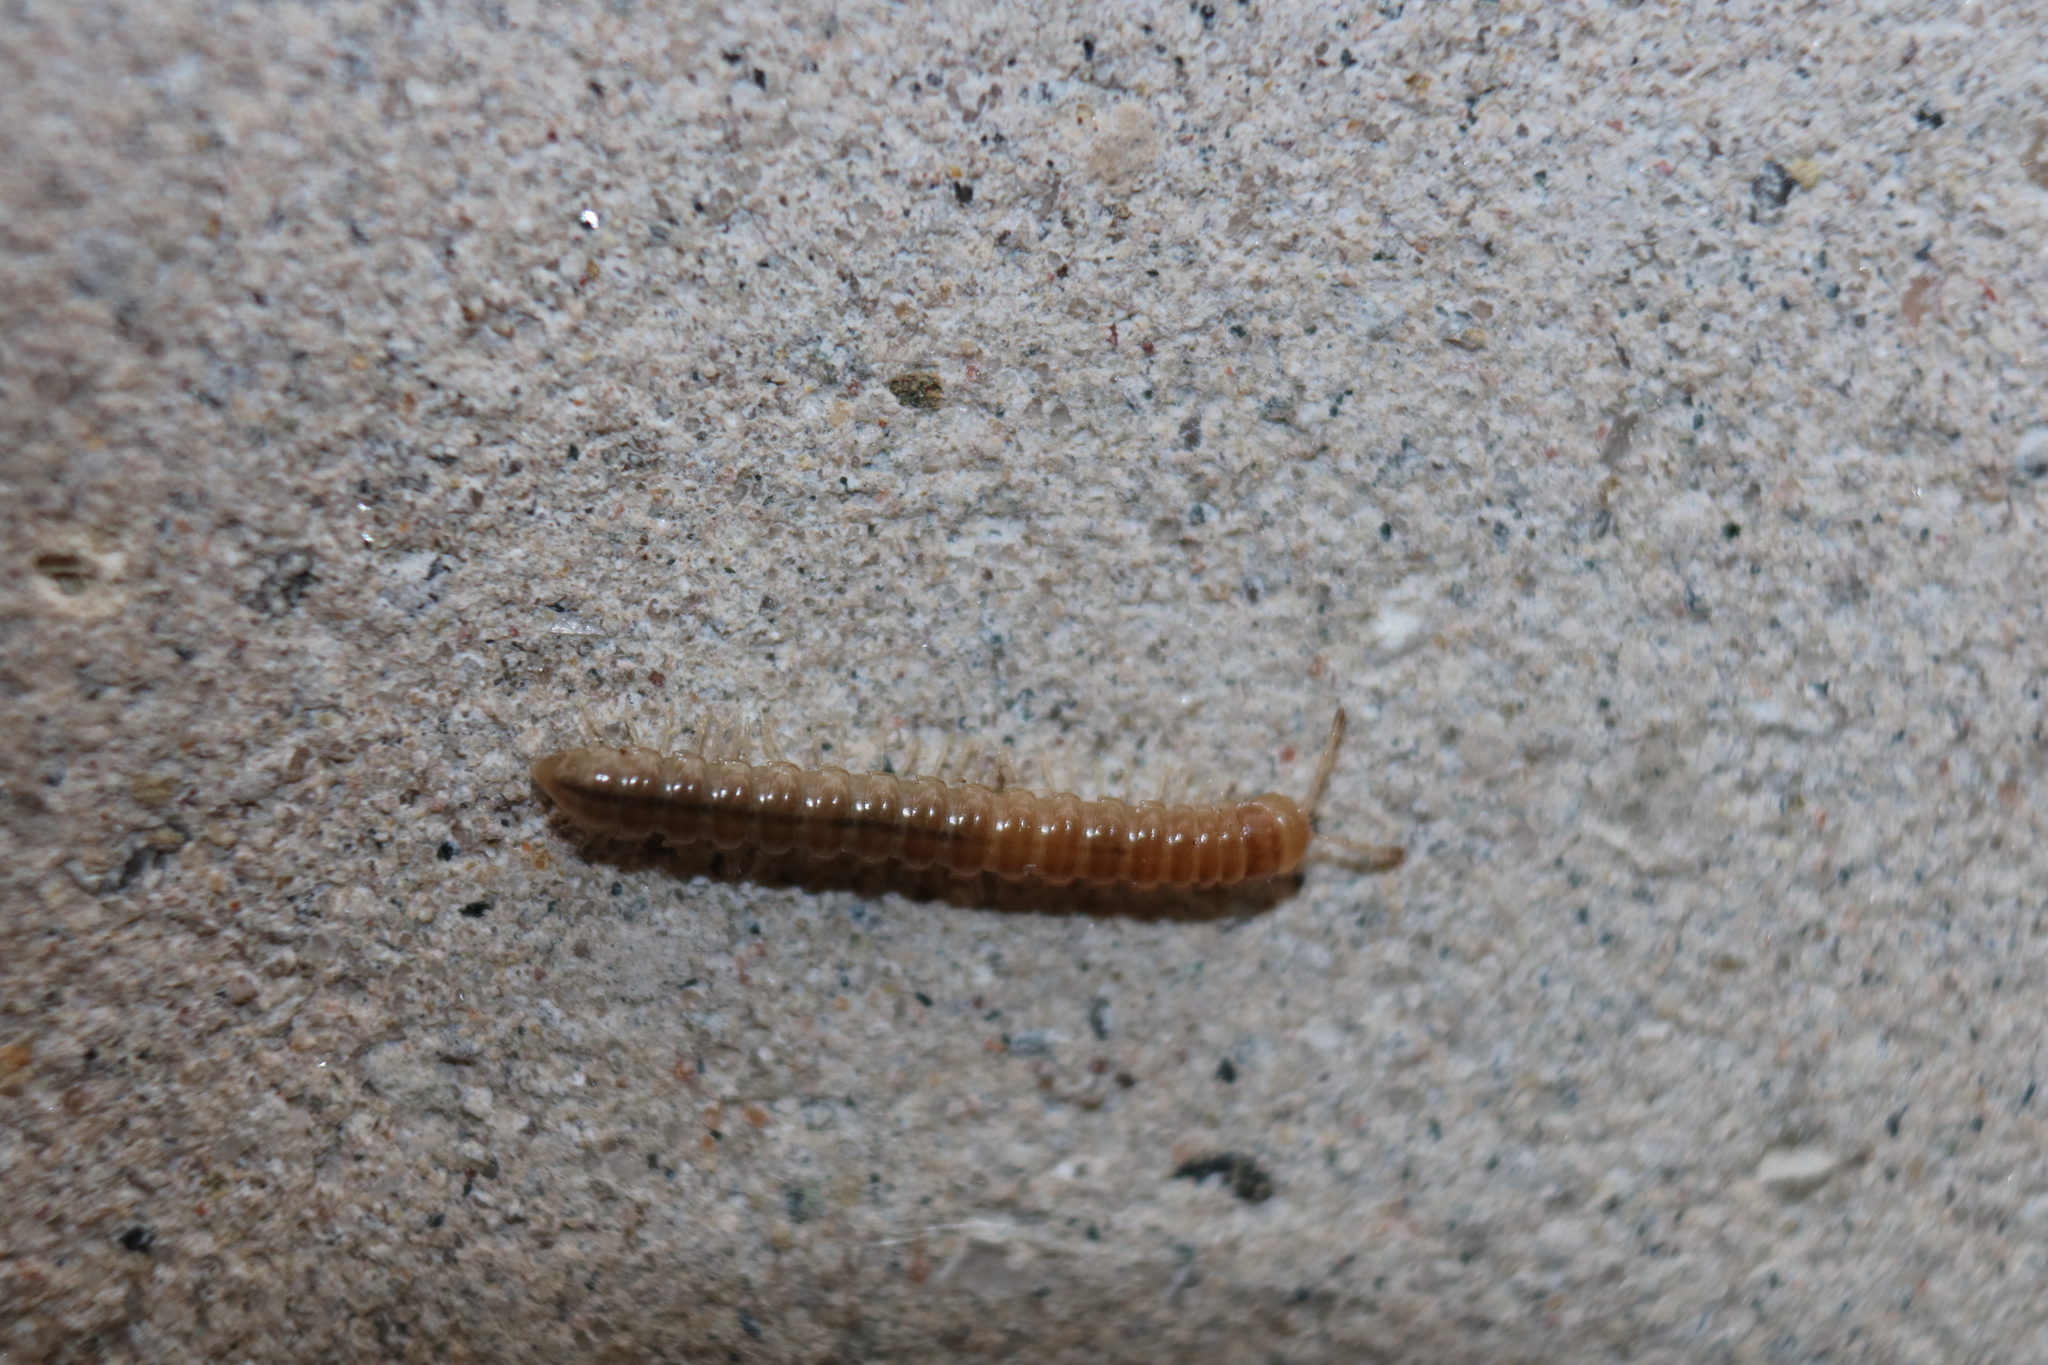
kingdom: Animalia
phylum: Arthropoda
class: Diplopoda
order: Polydesmida
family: Paradoxosomatidae
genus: Oxidus
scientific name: Oxidus gracilis
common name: Greenhouse millipede
